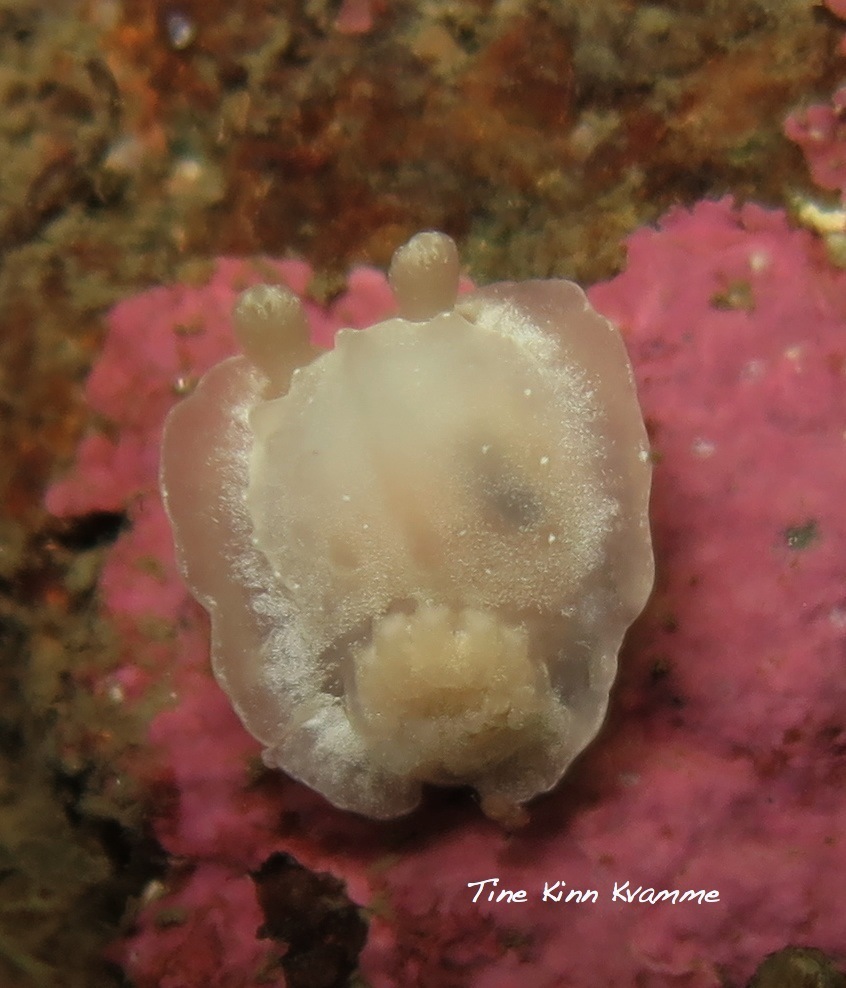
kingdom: Animalia
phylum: Mollusca
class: Gastropoda
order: Nudibranchia
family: Goniodorididae
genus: Okenia
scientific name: Okenia
